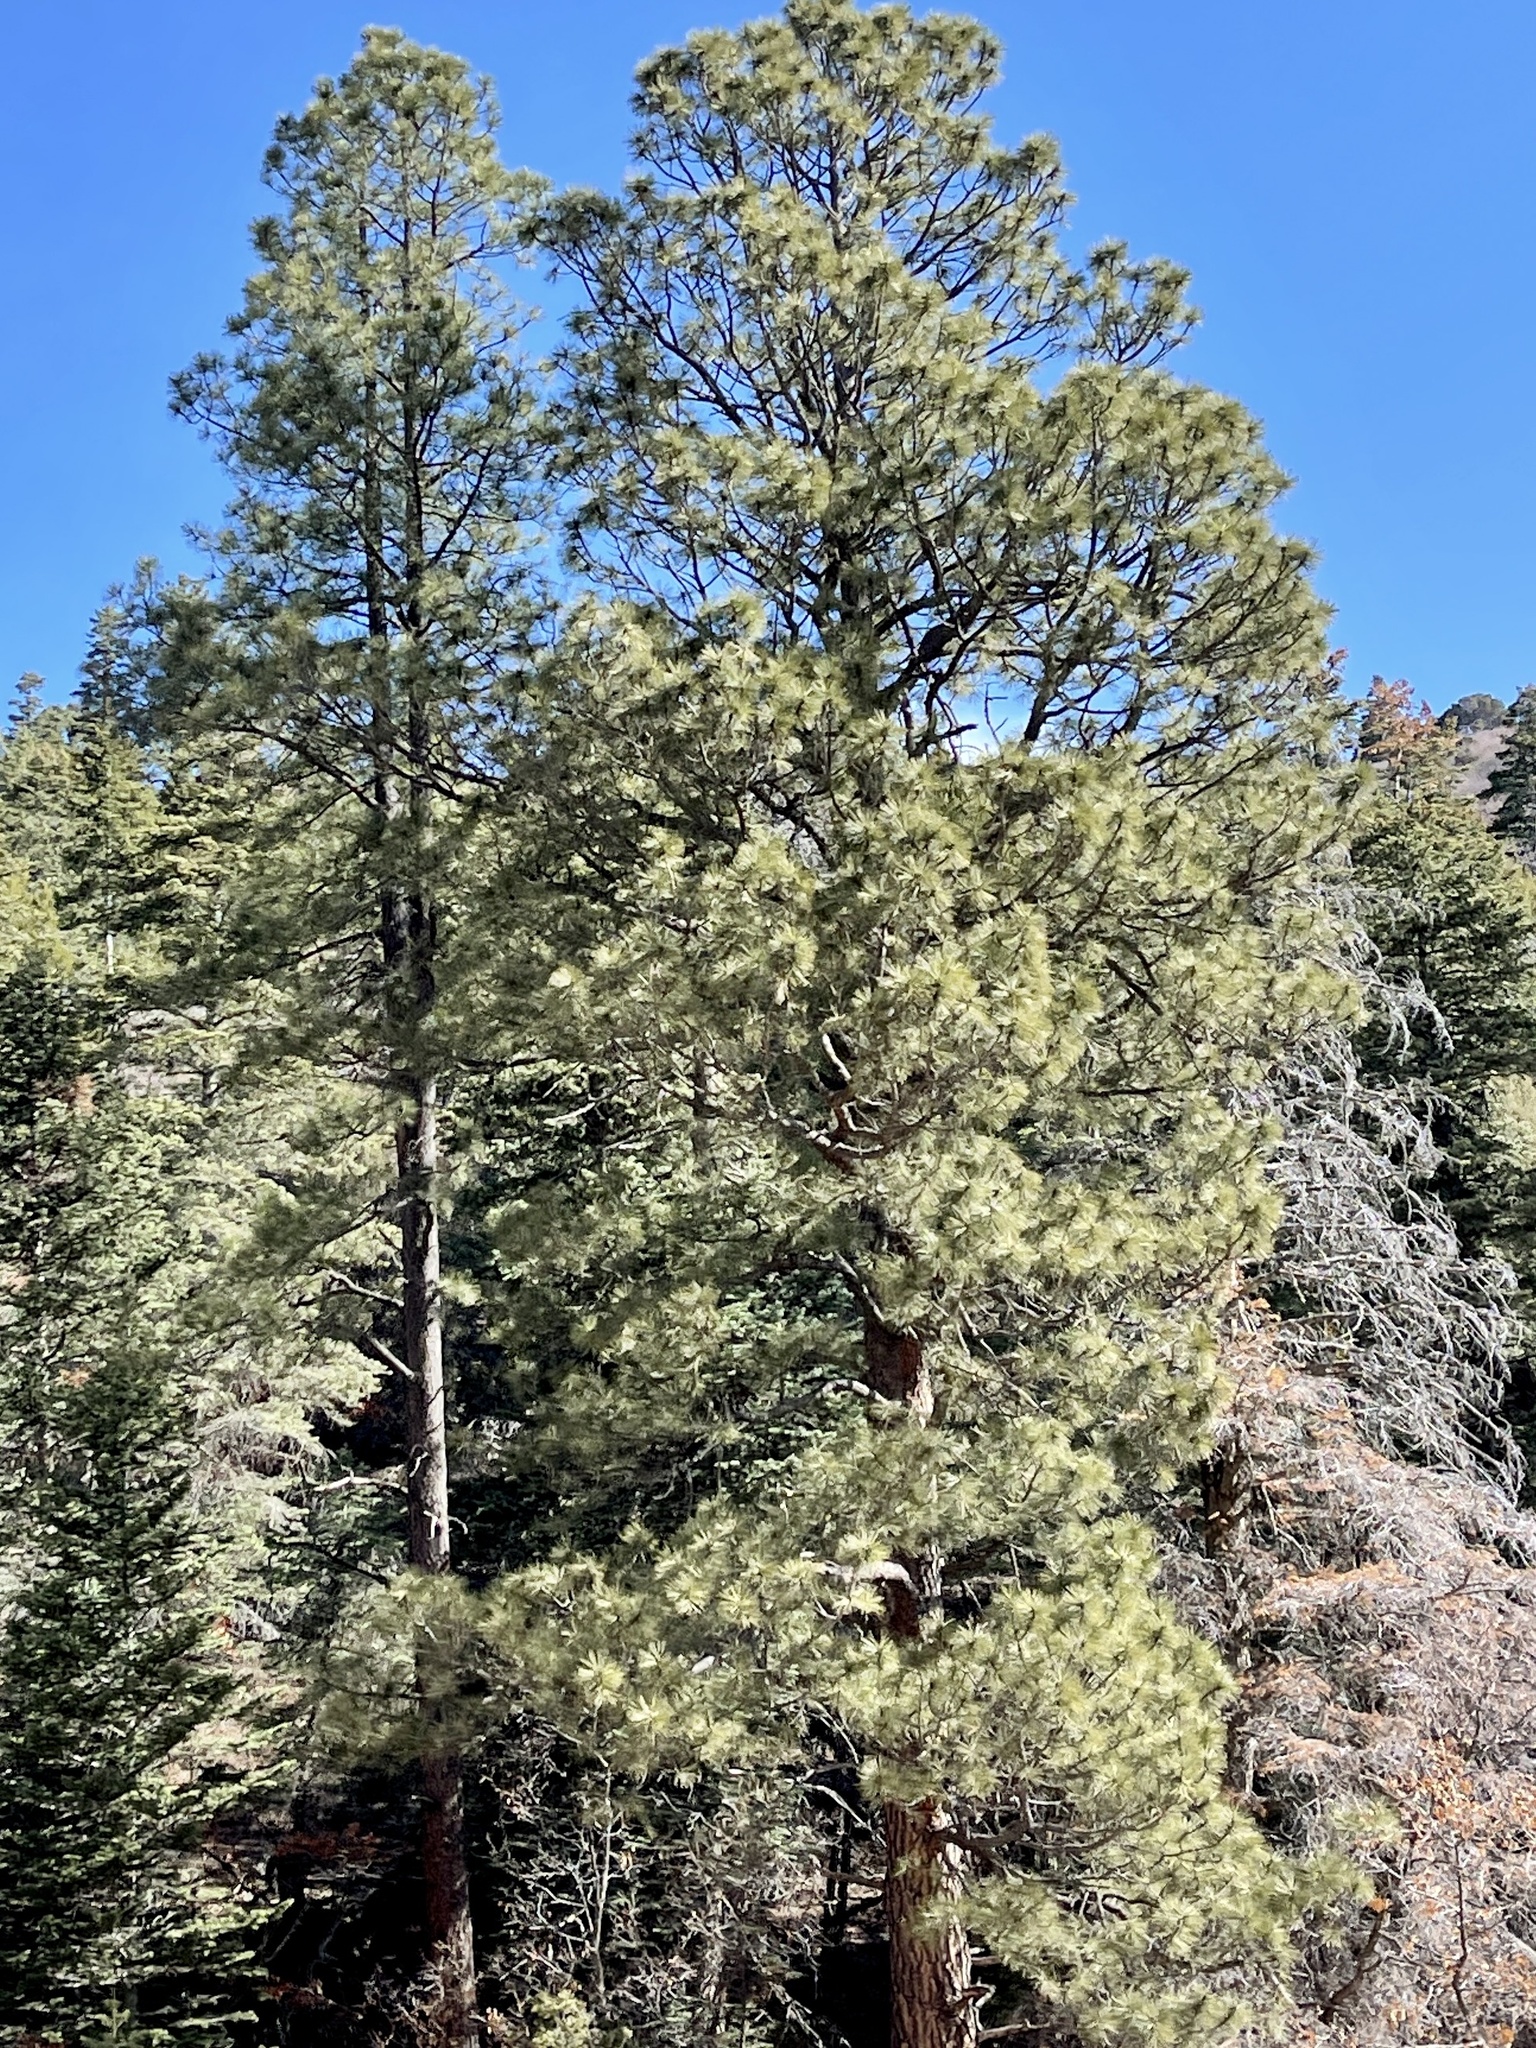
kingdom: Plantae
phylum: Tracheophyta
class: Pinopsida
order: Pinales
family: Pinaceae
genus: Pinus
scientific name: Pinus ponderosa
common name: Western yellow-pine
